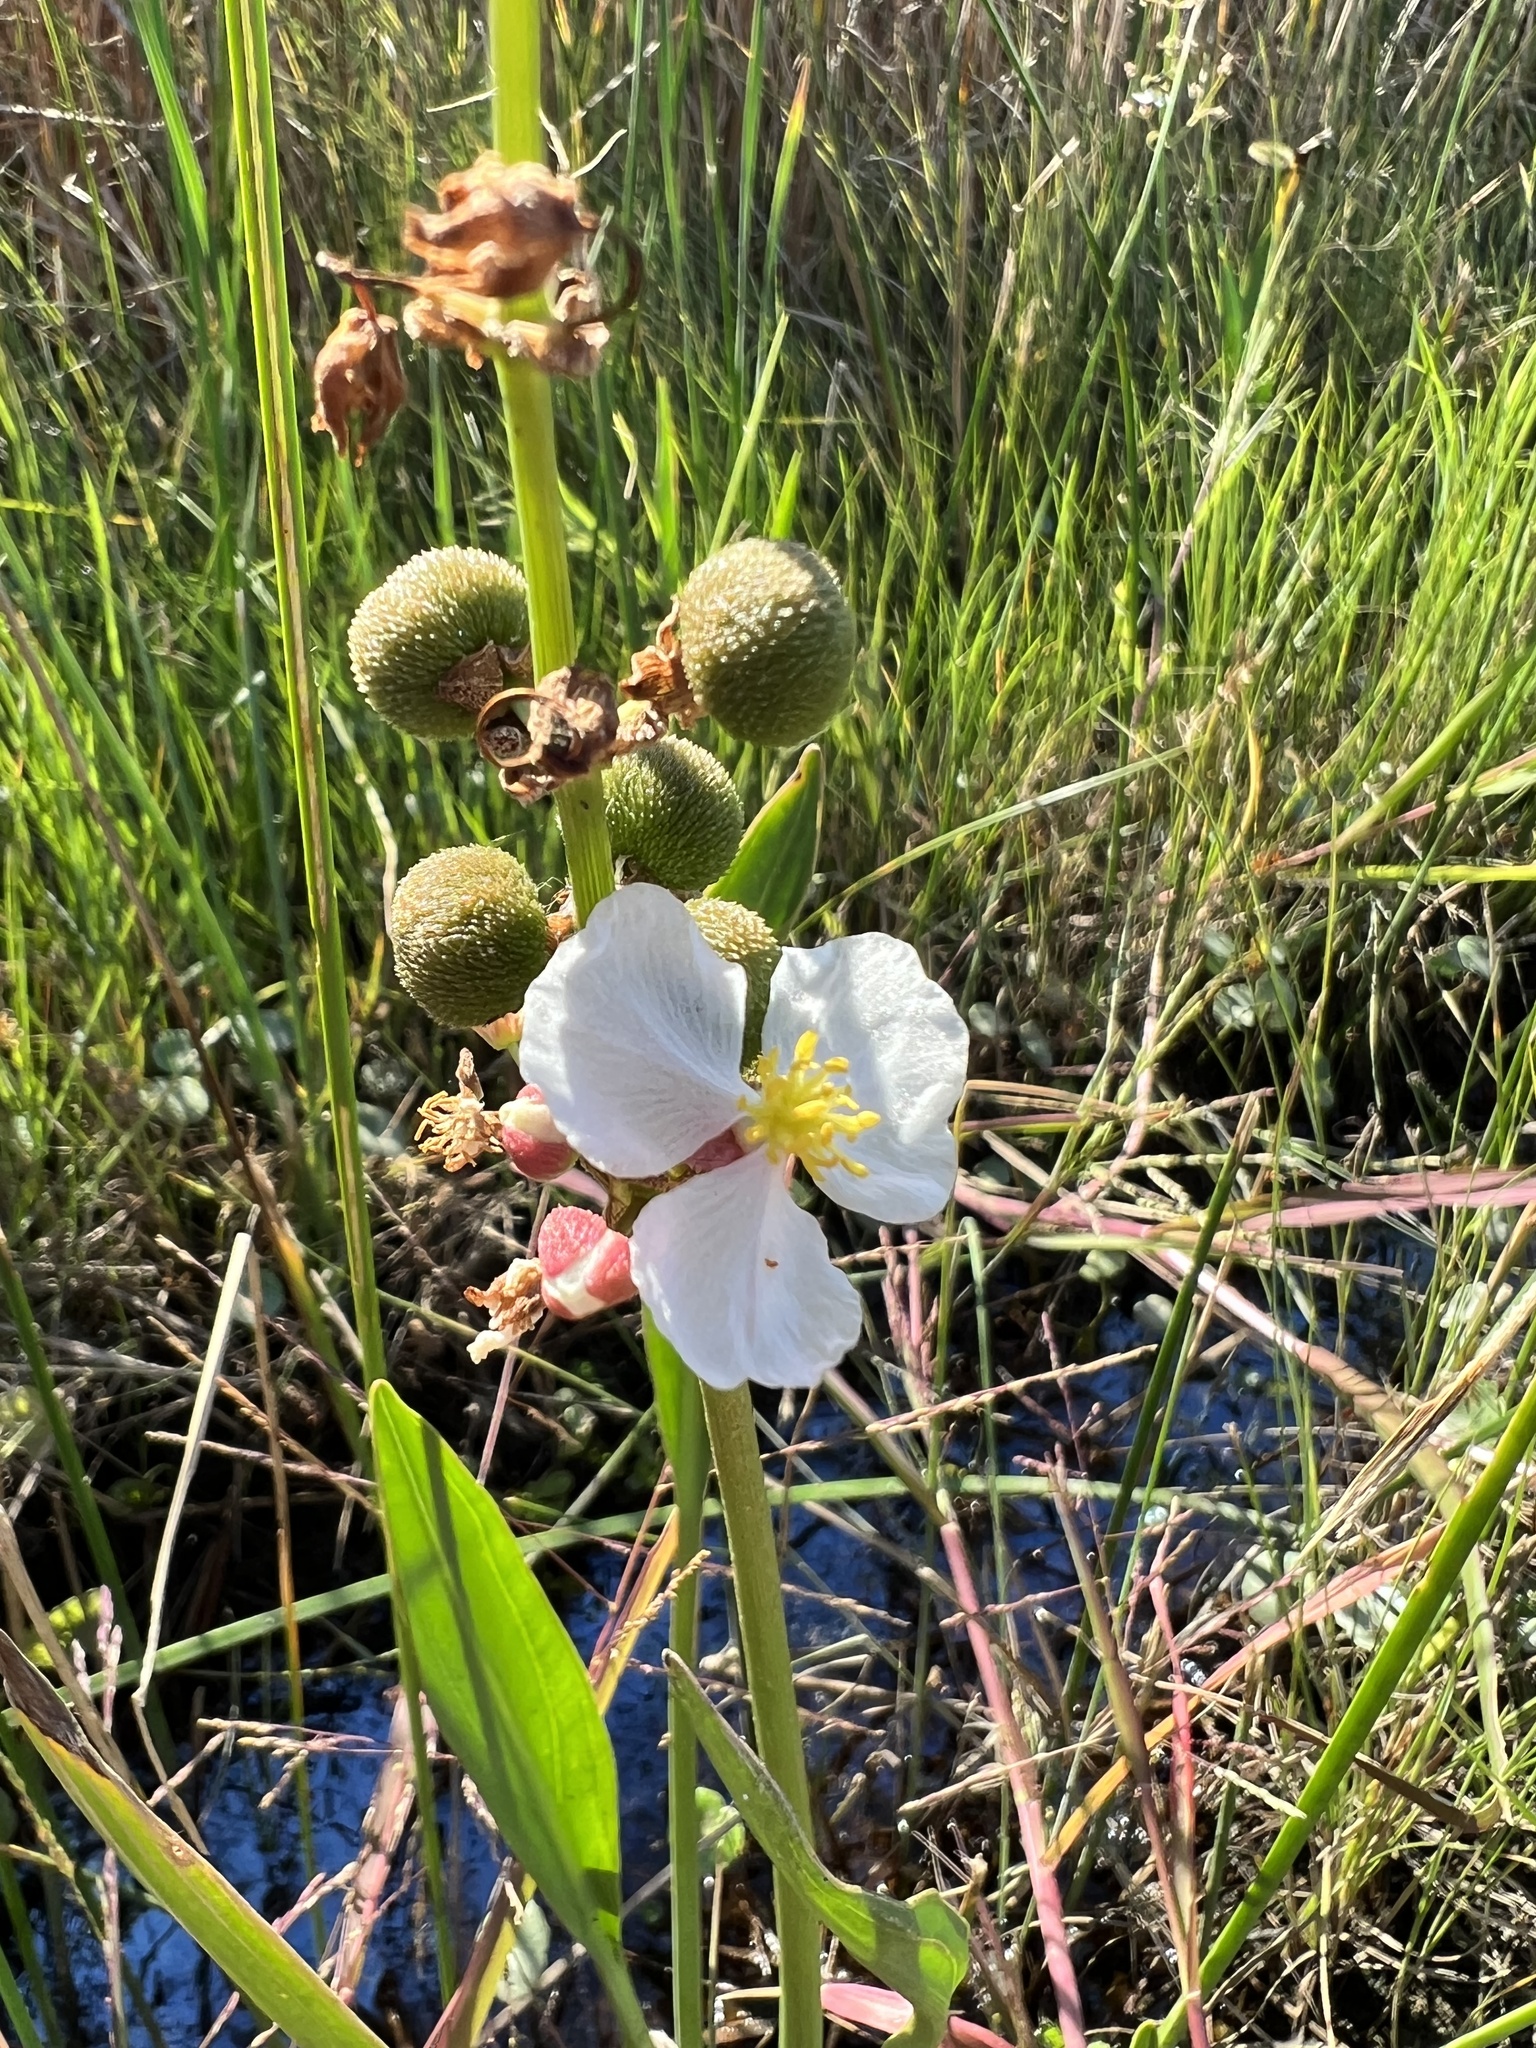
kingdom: Plantae
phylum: Tracheophyta
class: Liliopsida
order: Alismatales
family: Alismataceae
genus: Sagittaria
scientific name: Sagittaria lancifolia
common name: Lance-leaf arrowhead
